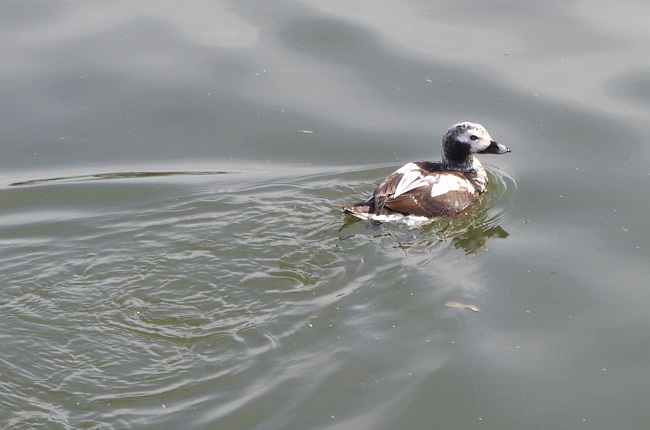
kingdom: Animalia
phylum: Chordata
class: Aves
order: Anseriformes
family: Anatidae
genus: Clangula
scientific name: Clangula hyemalis
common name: Long-tailed duck
